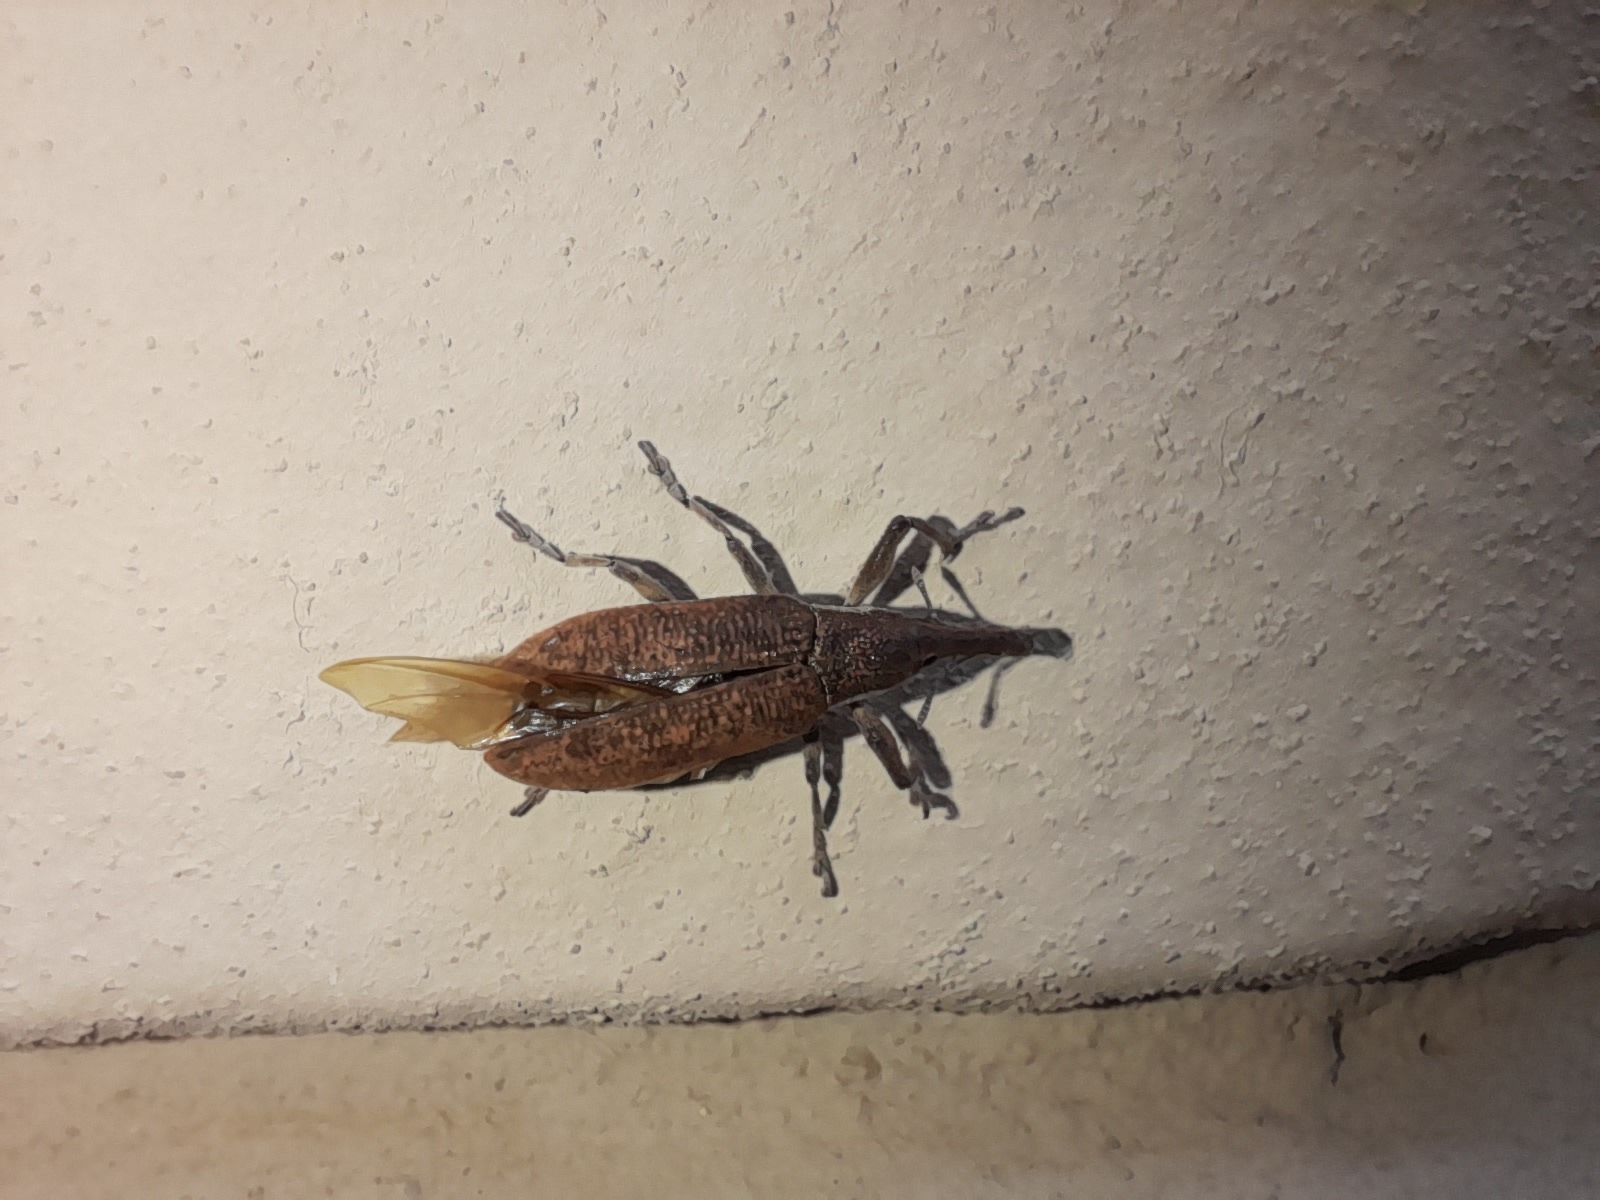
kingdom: Animalia
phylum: Arthropoda
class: Insecta
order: Coleoptera
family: Curculionidae
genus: Lixus
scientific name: Lixus pulverulentus
